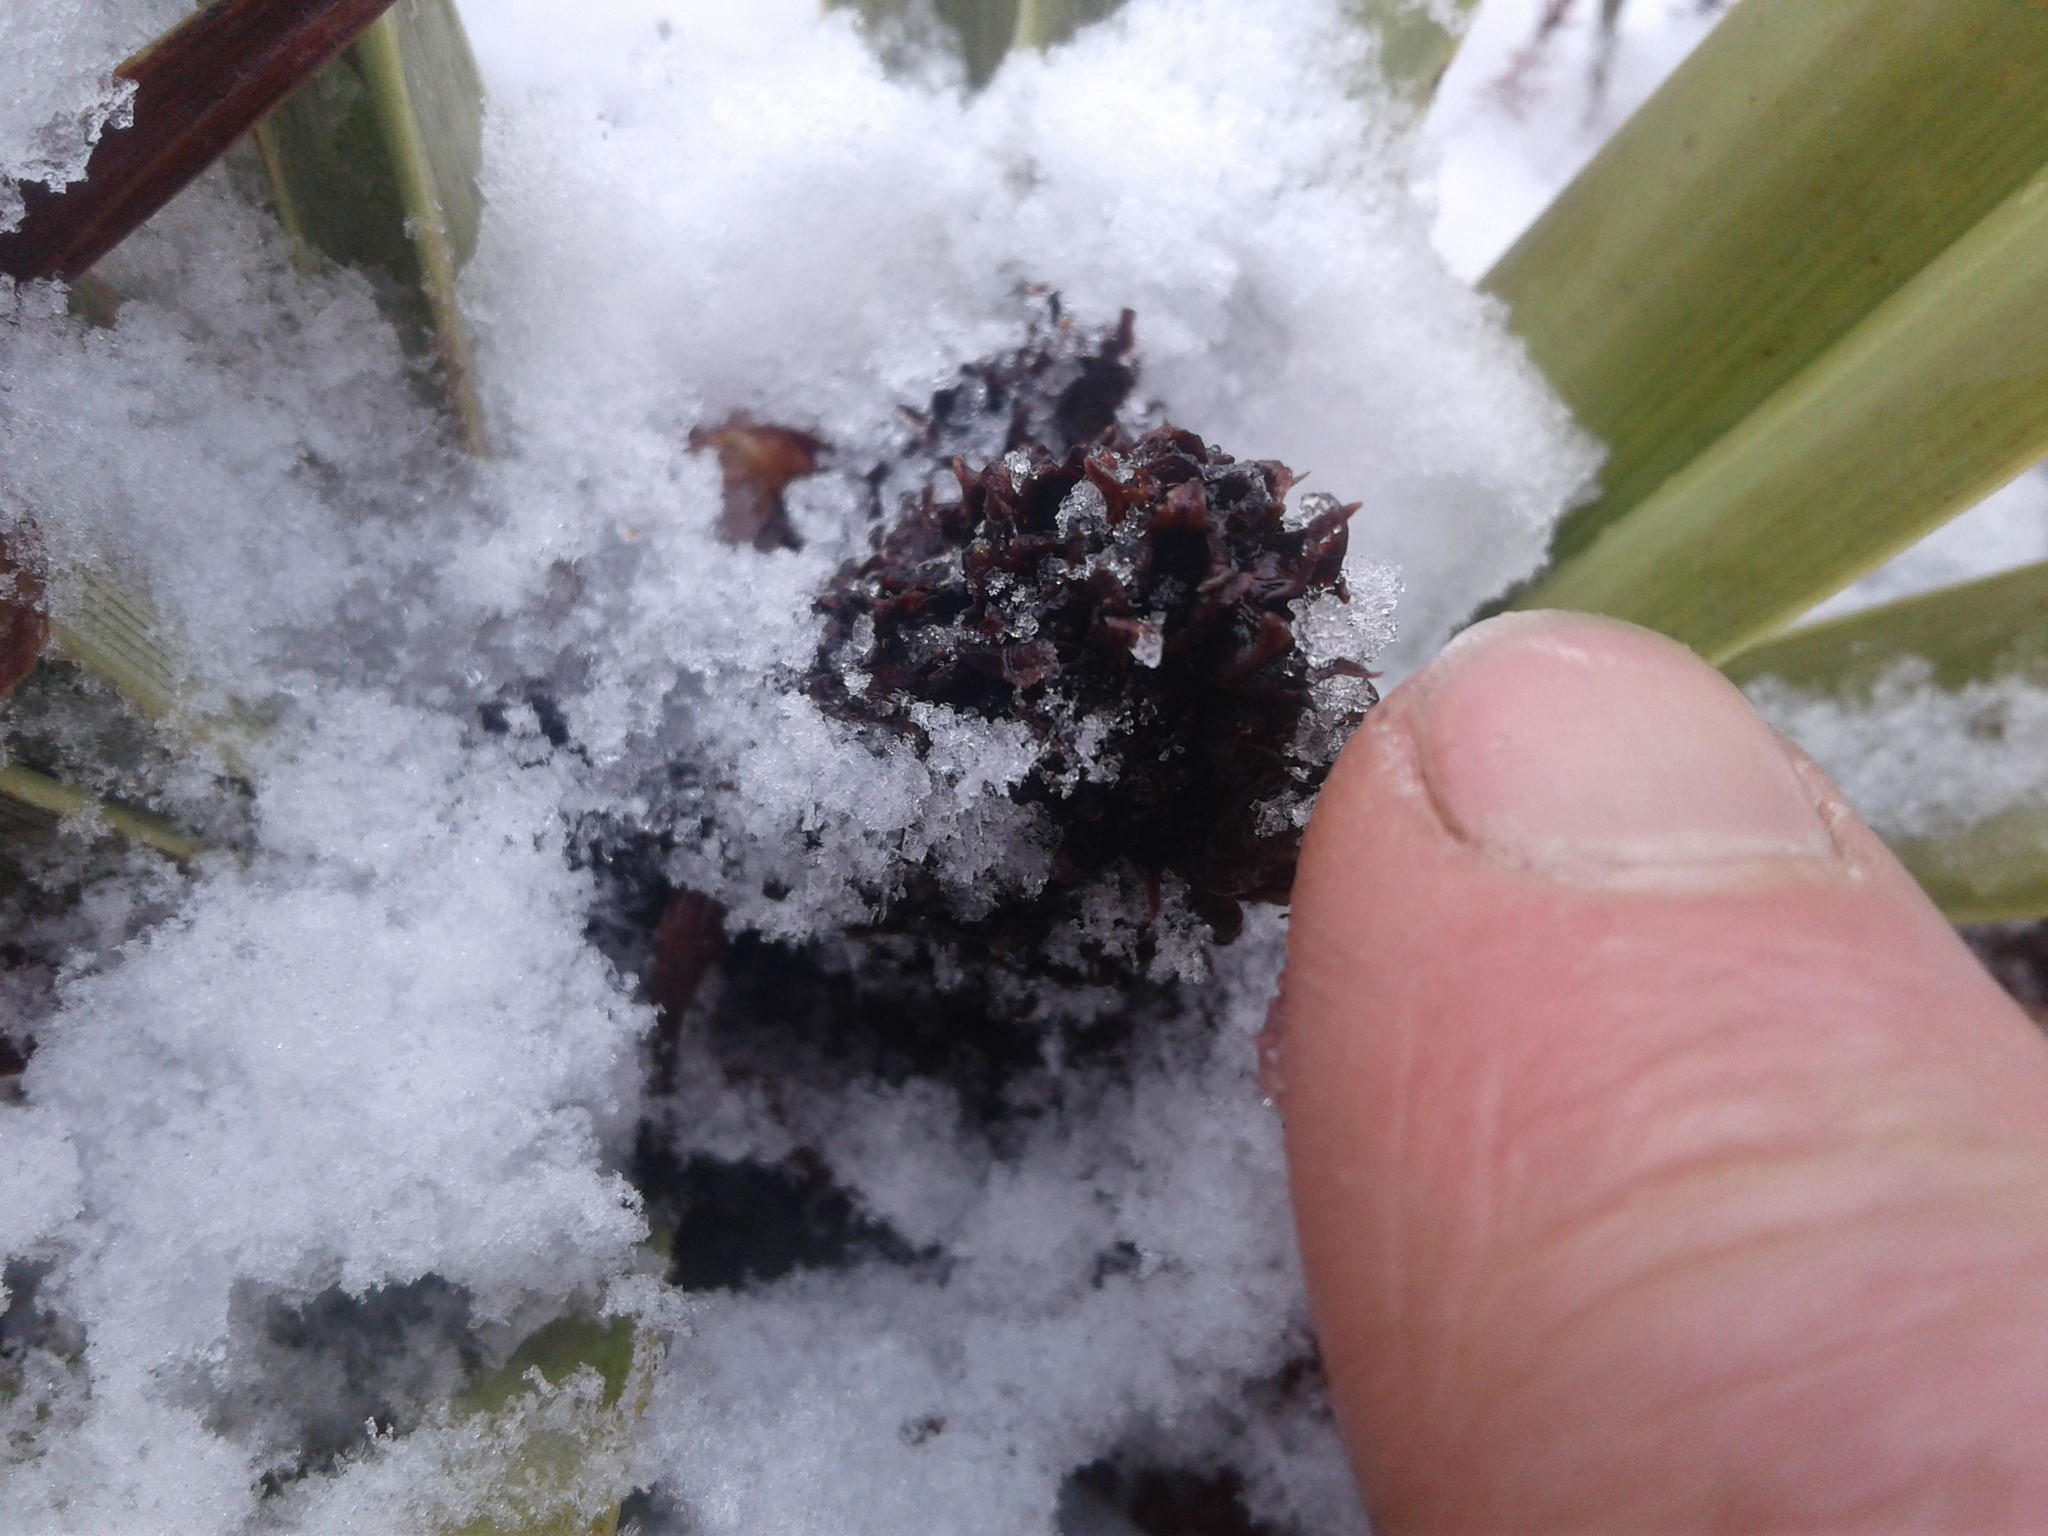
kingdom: Plantae
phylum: Tracheophyta
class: Liliopsida
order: Asparagales
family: Asteliaceae
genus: Astelia
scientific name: Astelia skottsbergii
